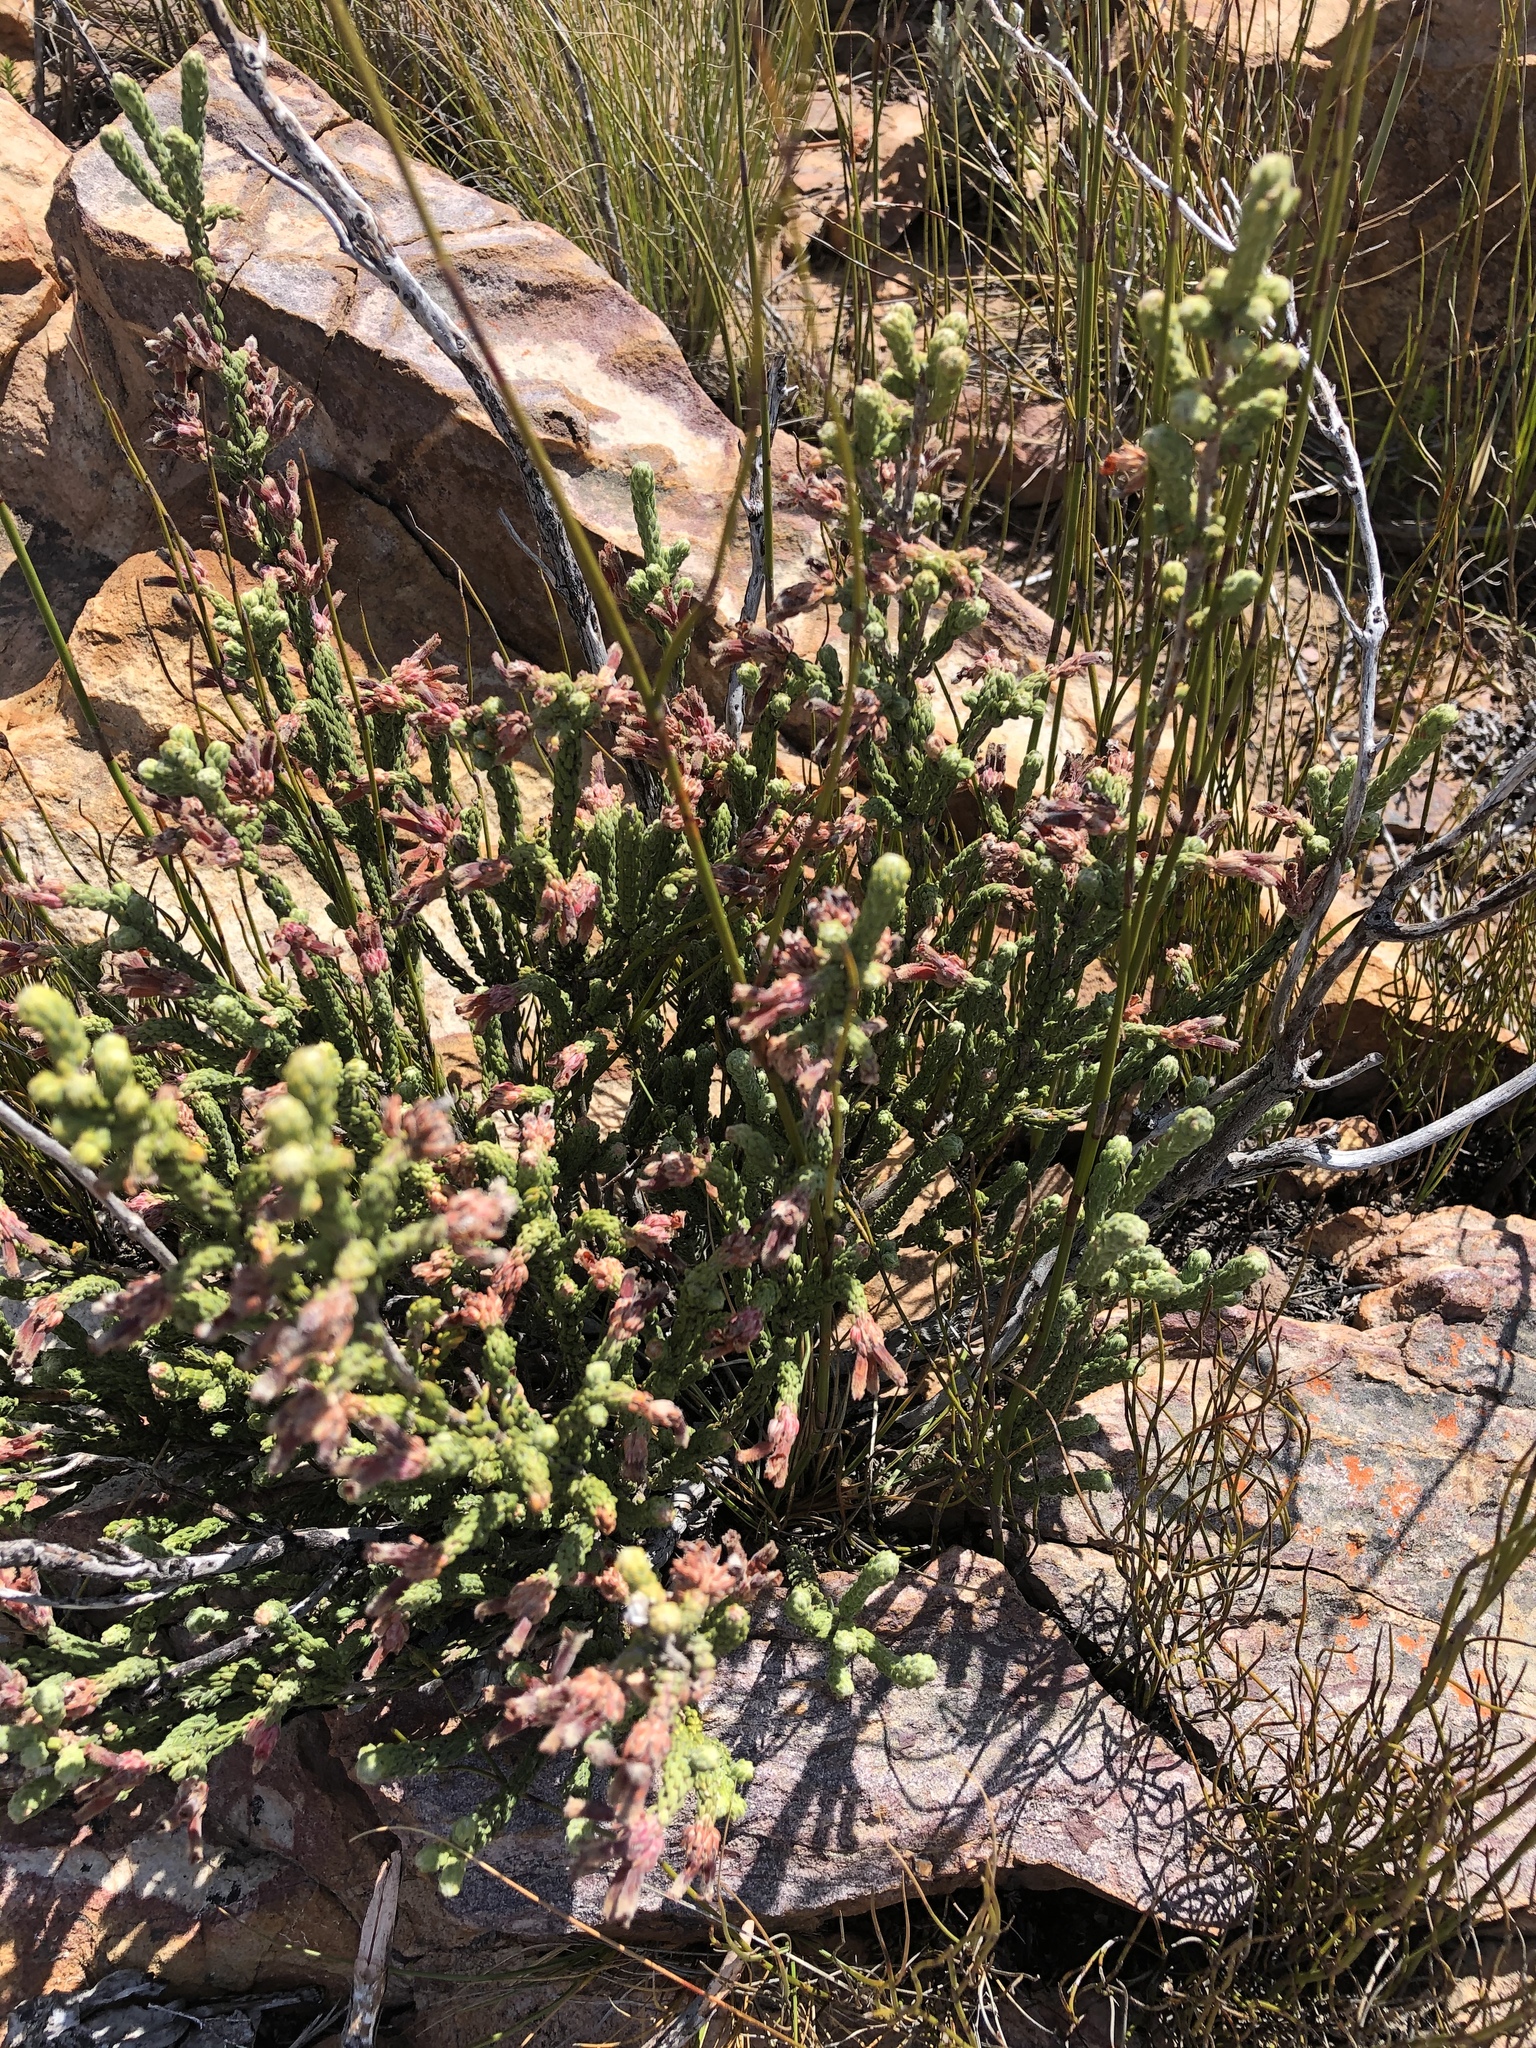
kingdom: Plantae
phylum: Tracheophyta
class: Magnoliopsida
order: Ericales
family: Ericaceae
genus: Erica
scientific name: Erica strigilifolia
